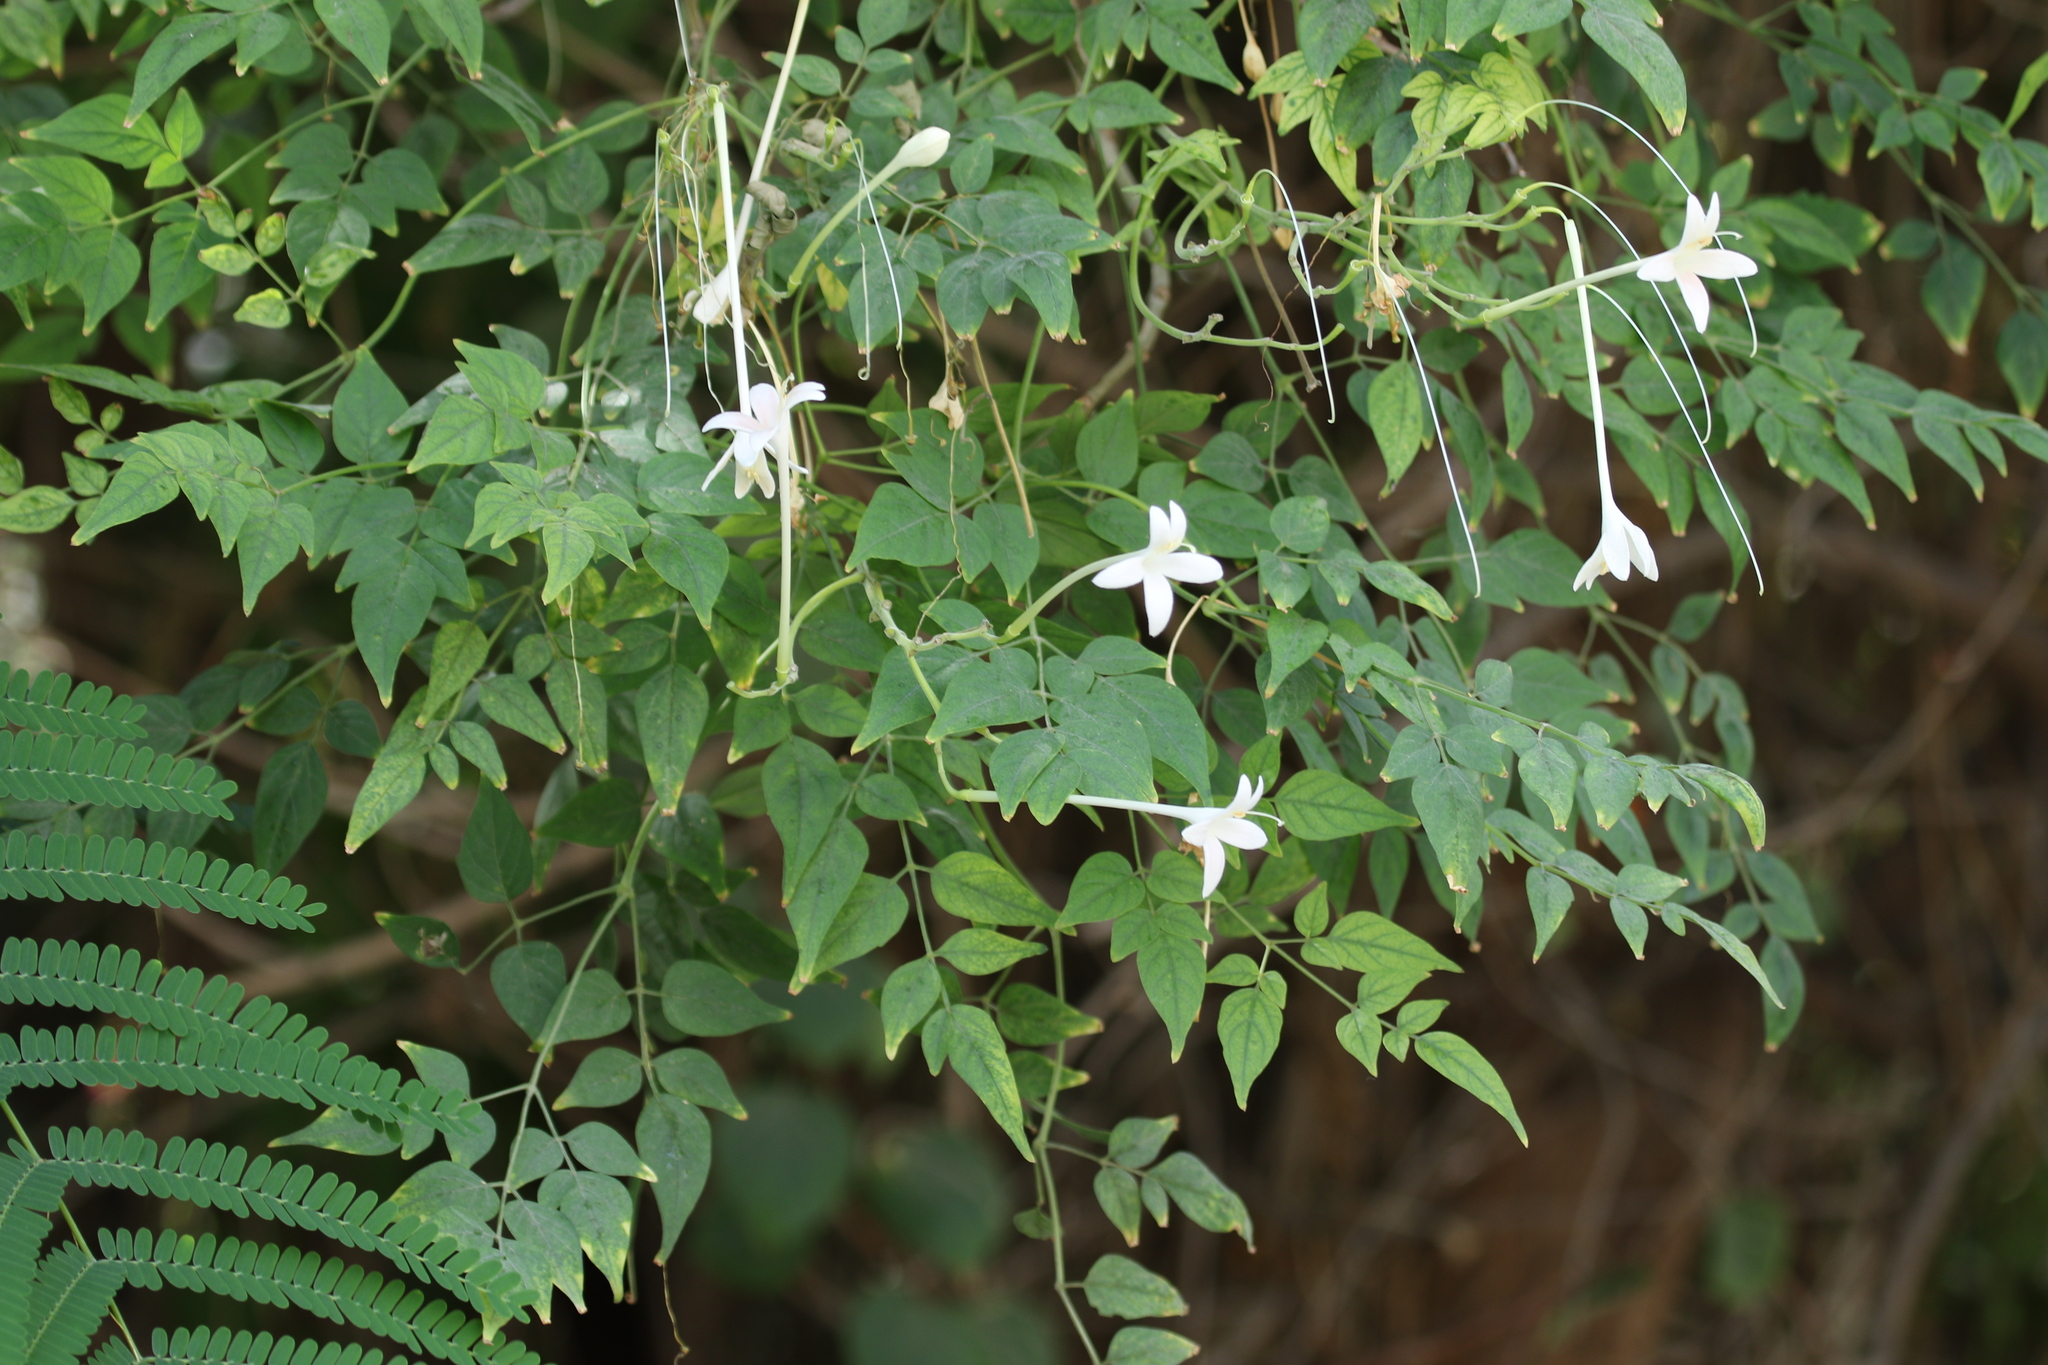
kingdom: Plantae
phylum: Tracheophyta
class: Magnoliopsida
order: Lamiales
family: Bignoniaceae
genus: Millingtonia
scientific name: Millingtonia hortensis
